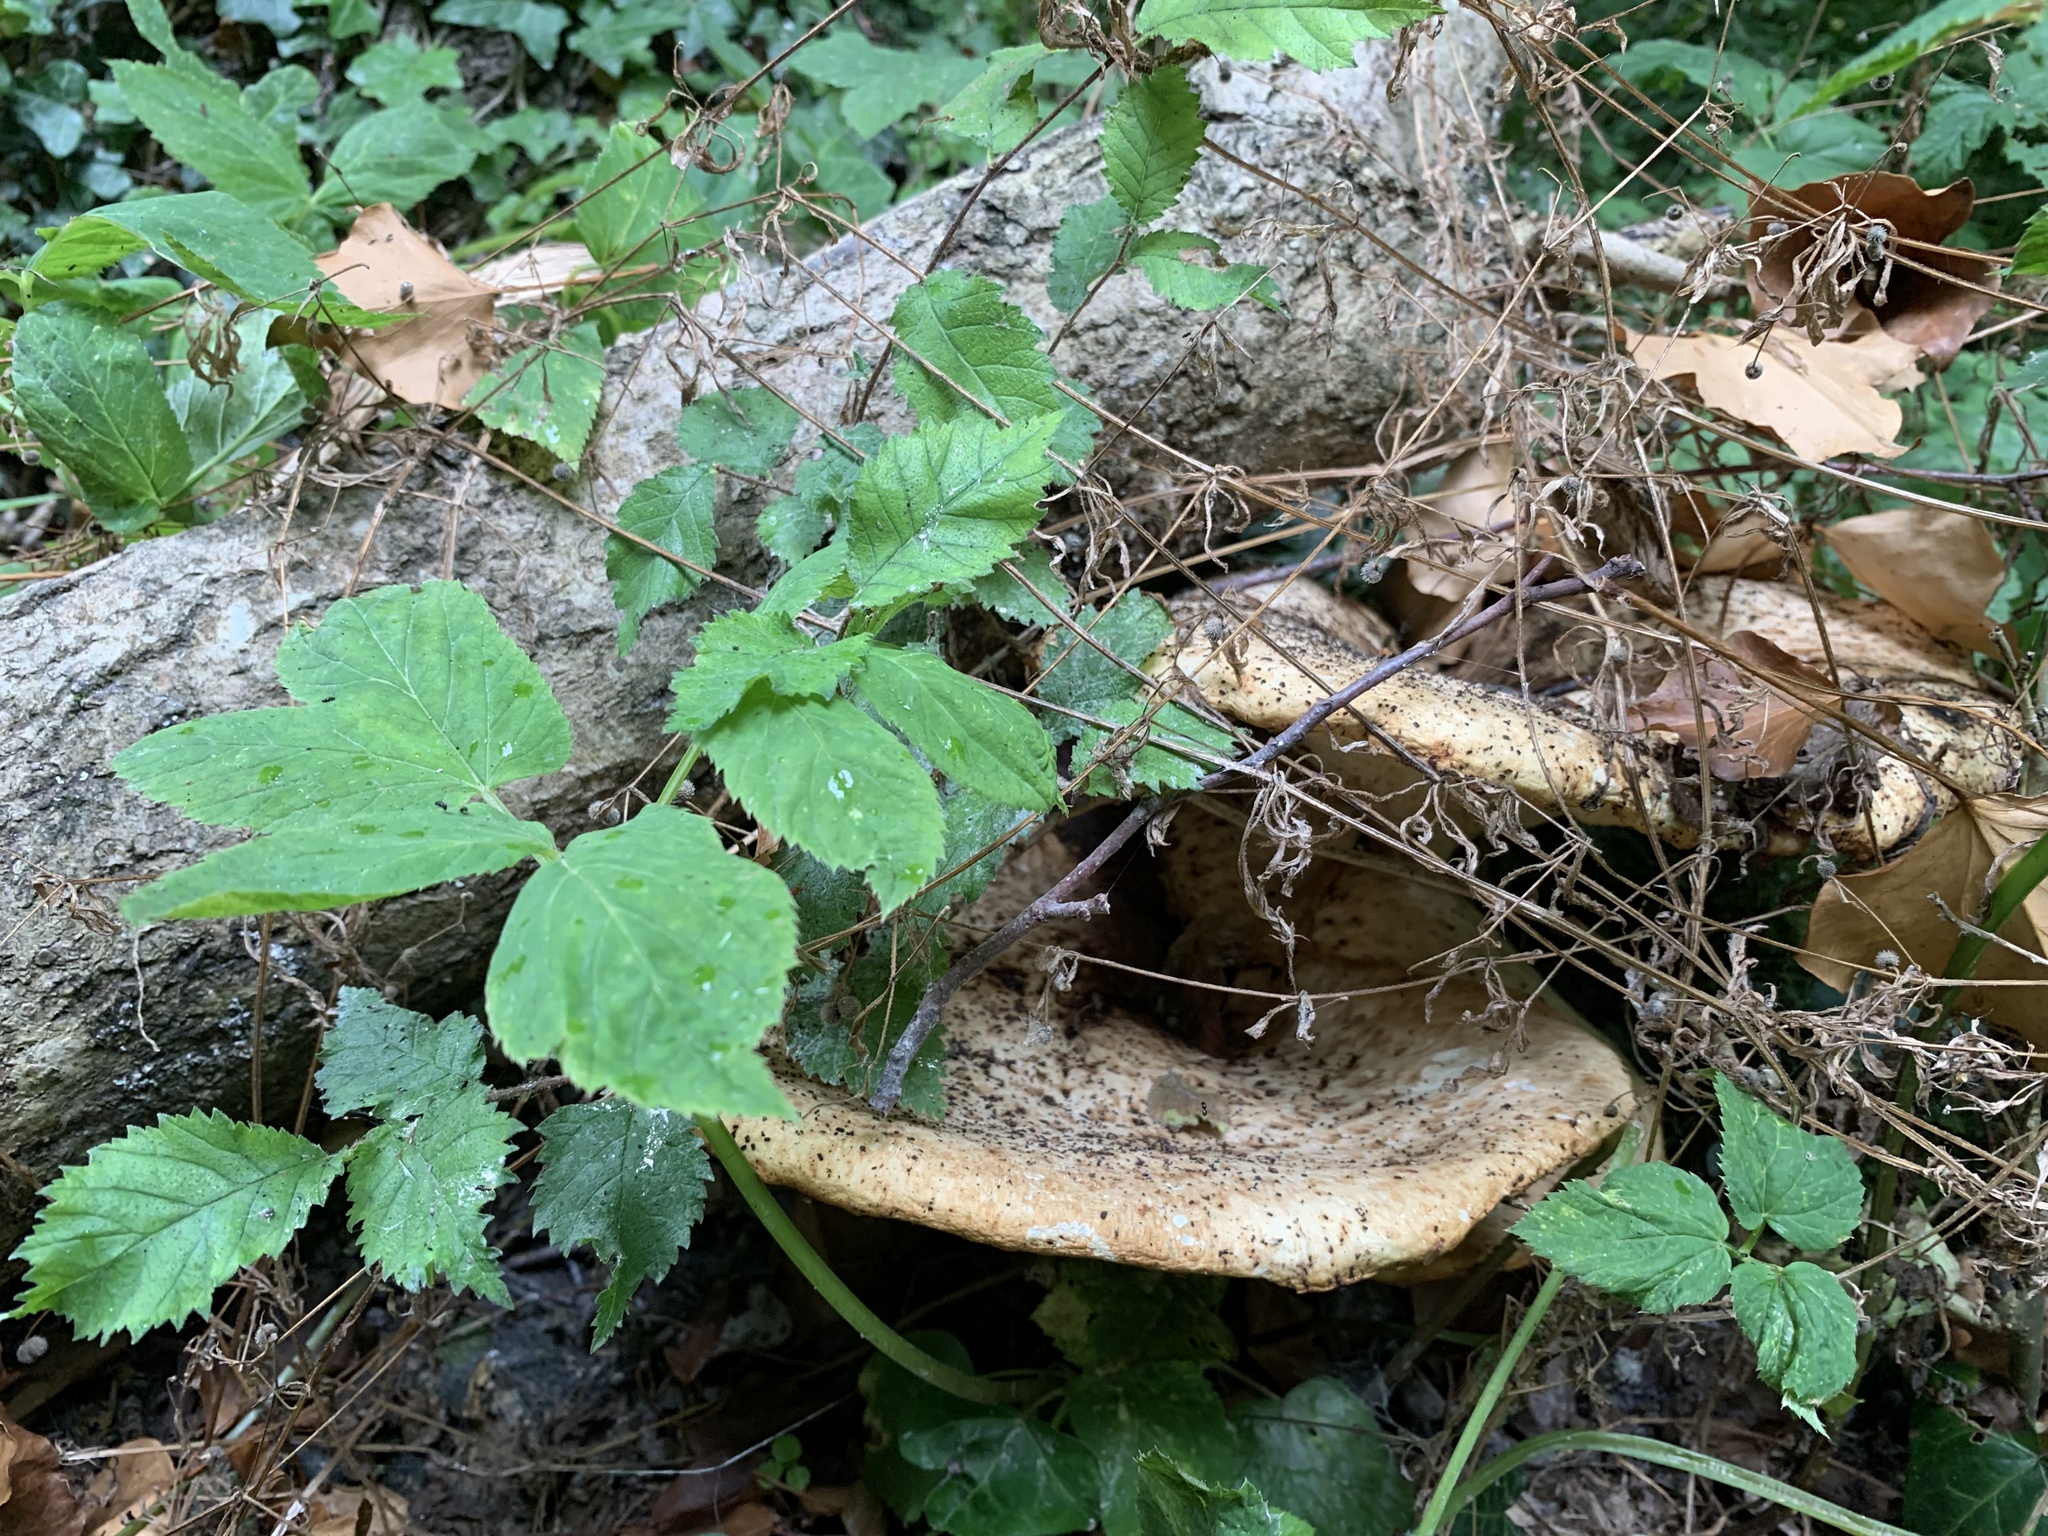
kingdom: Fungi
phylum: Basidiomycota
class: Agaricomycetes
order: Polyporales
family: Polyporaceae
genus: Cerioporus
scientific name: Cerioporus squamosus
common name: Dryad's saddle
